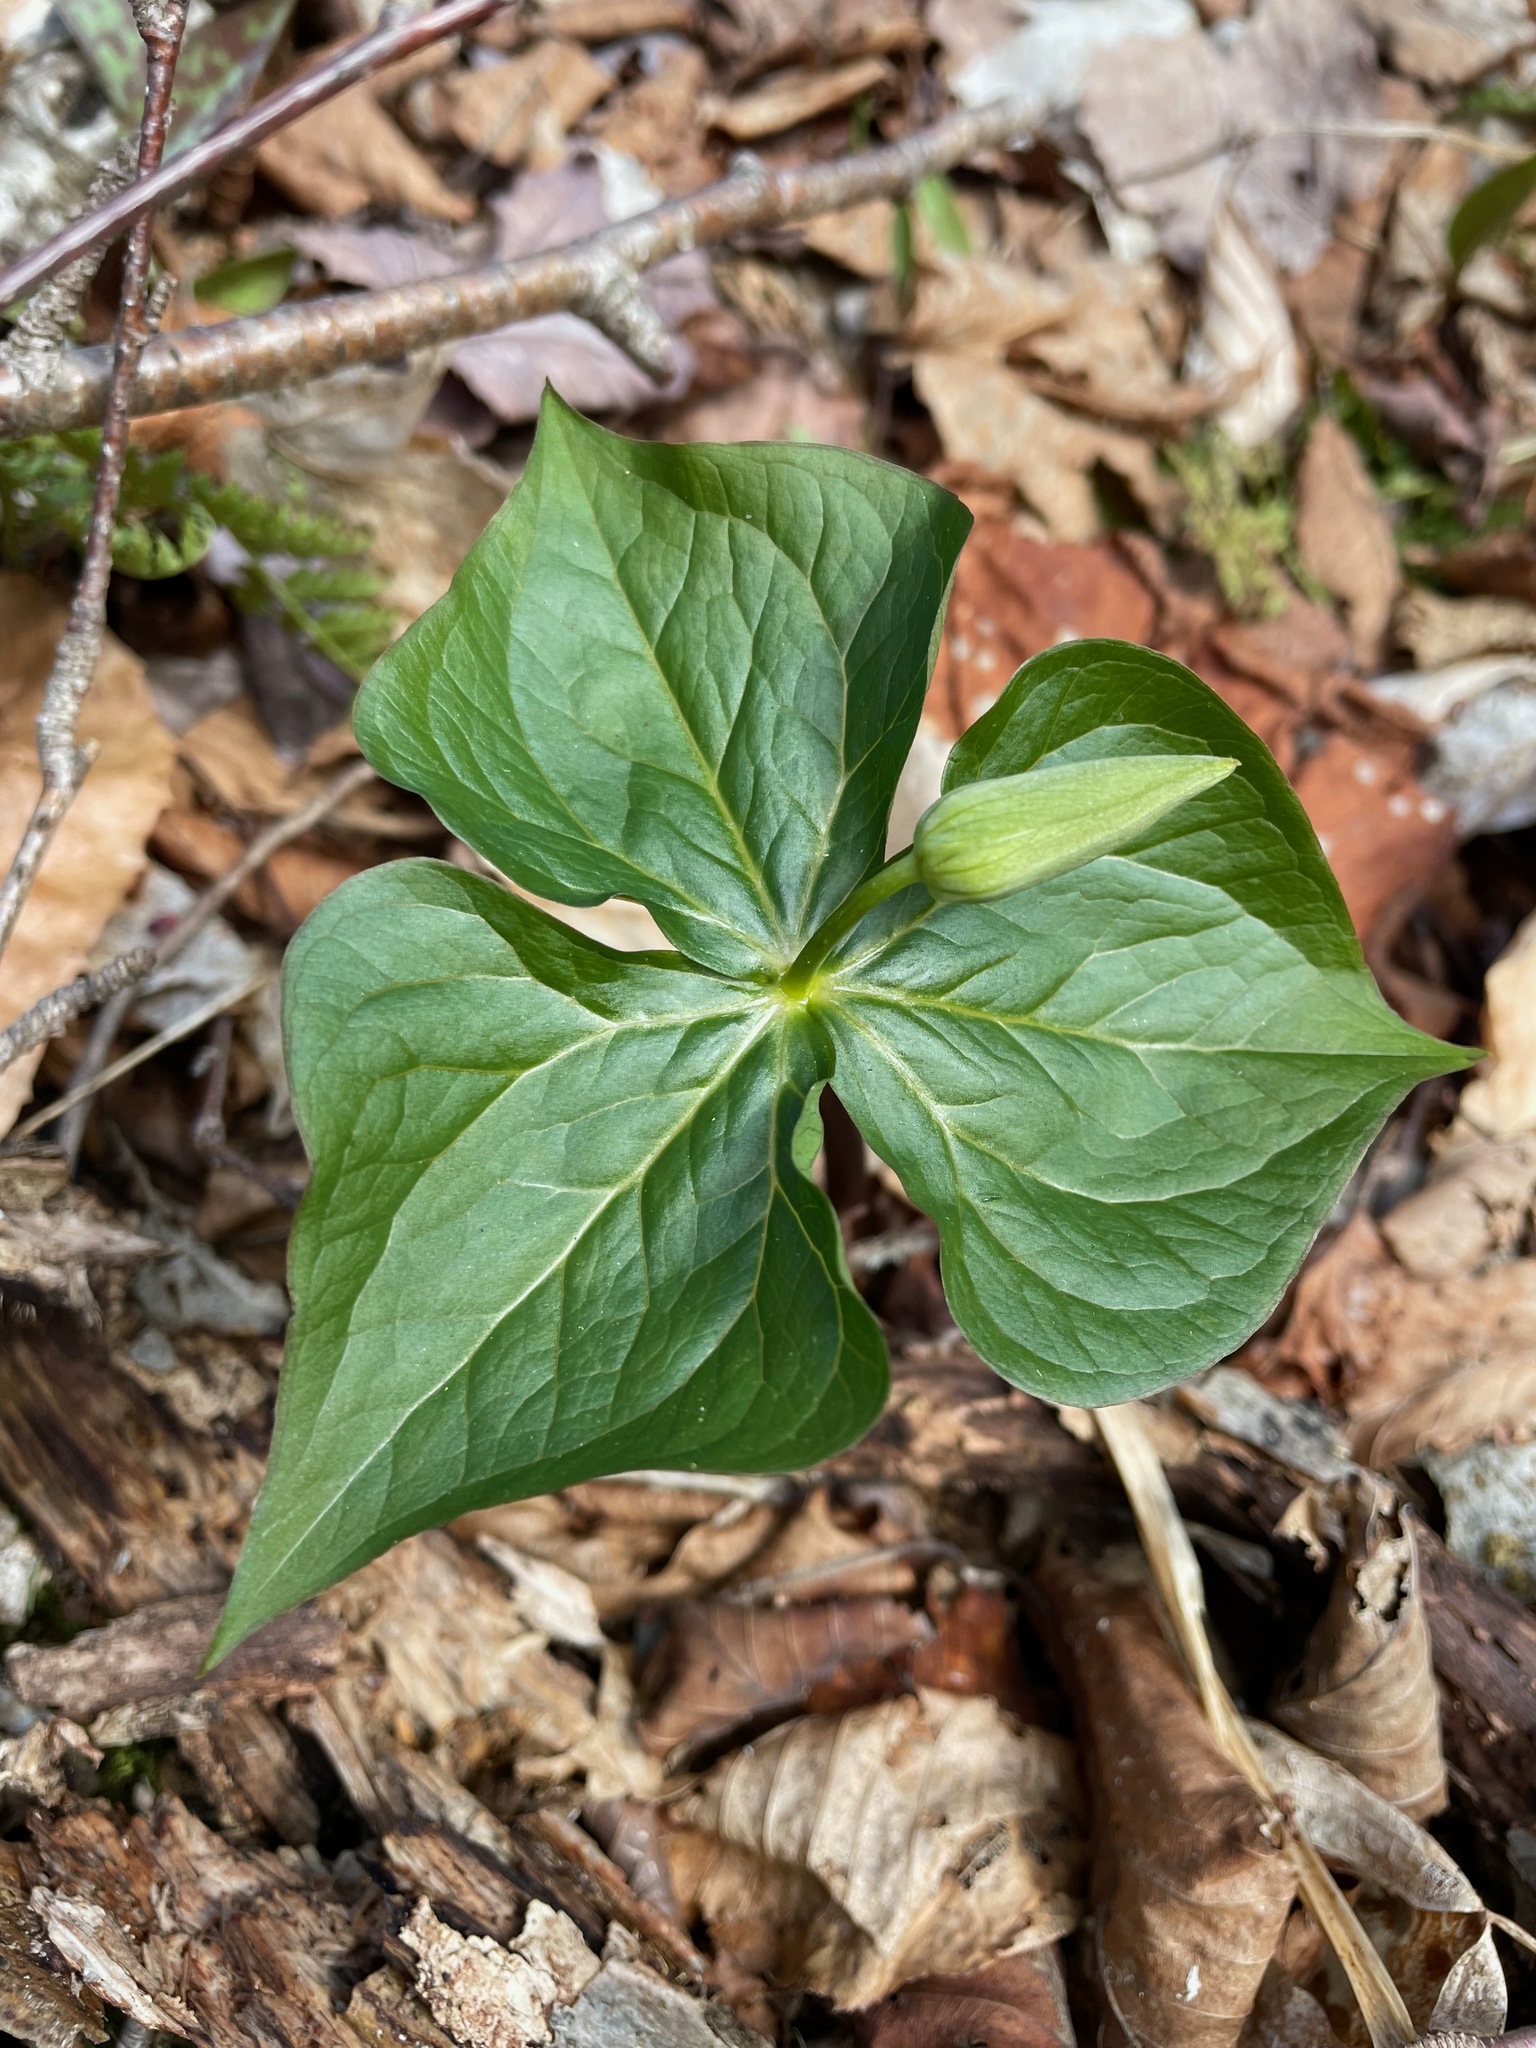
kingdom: Plantae
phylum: Tracheophyta
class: Liliopsida
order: Liliales
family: Melanthiaceae
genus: Trillium
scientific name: Trillium erectum
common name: Purple trillium
